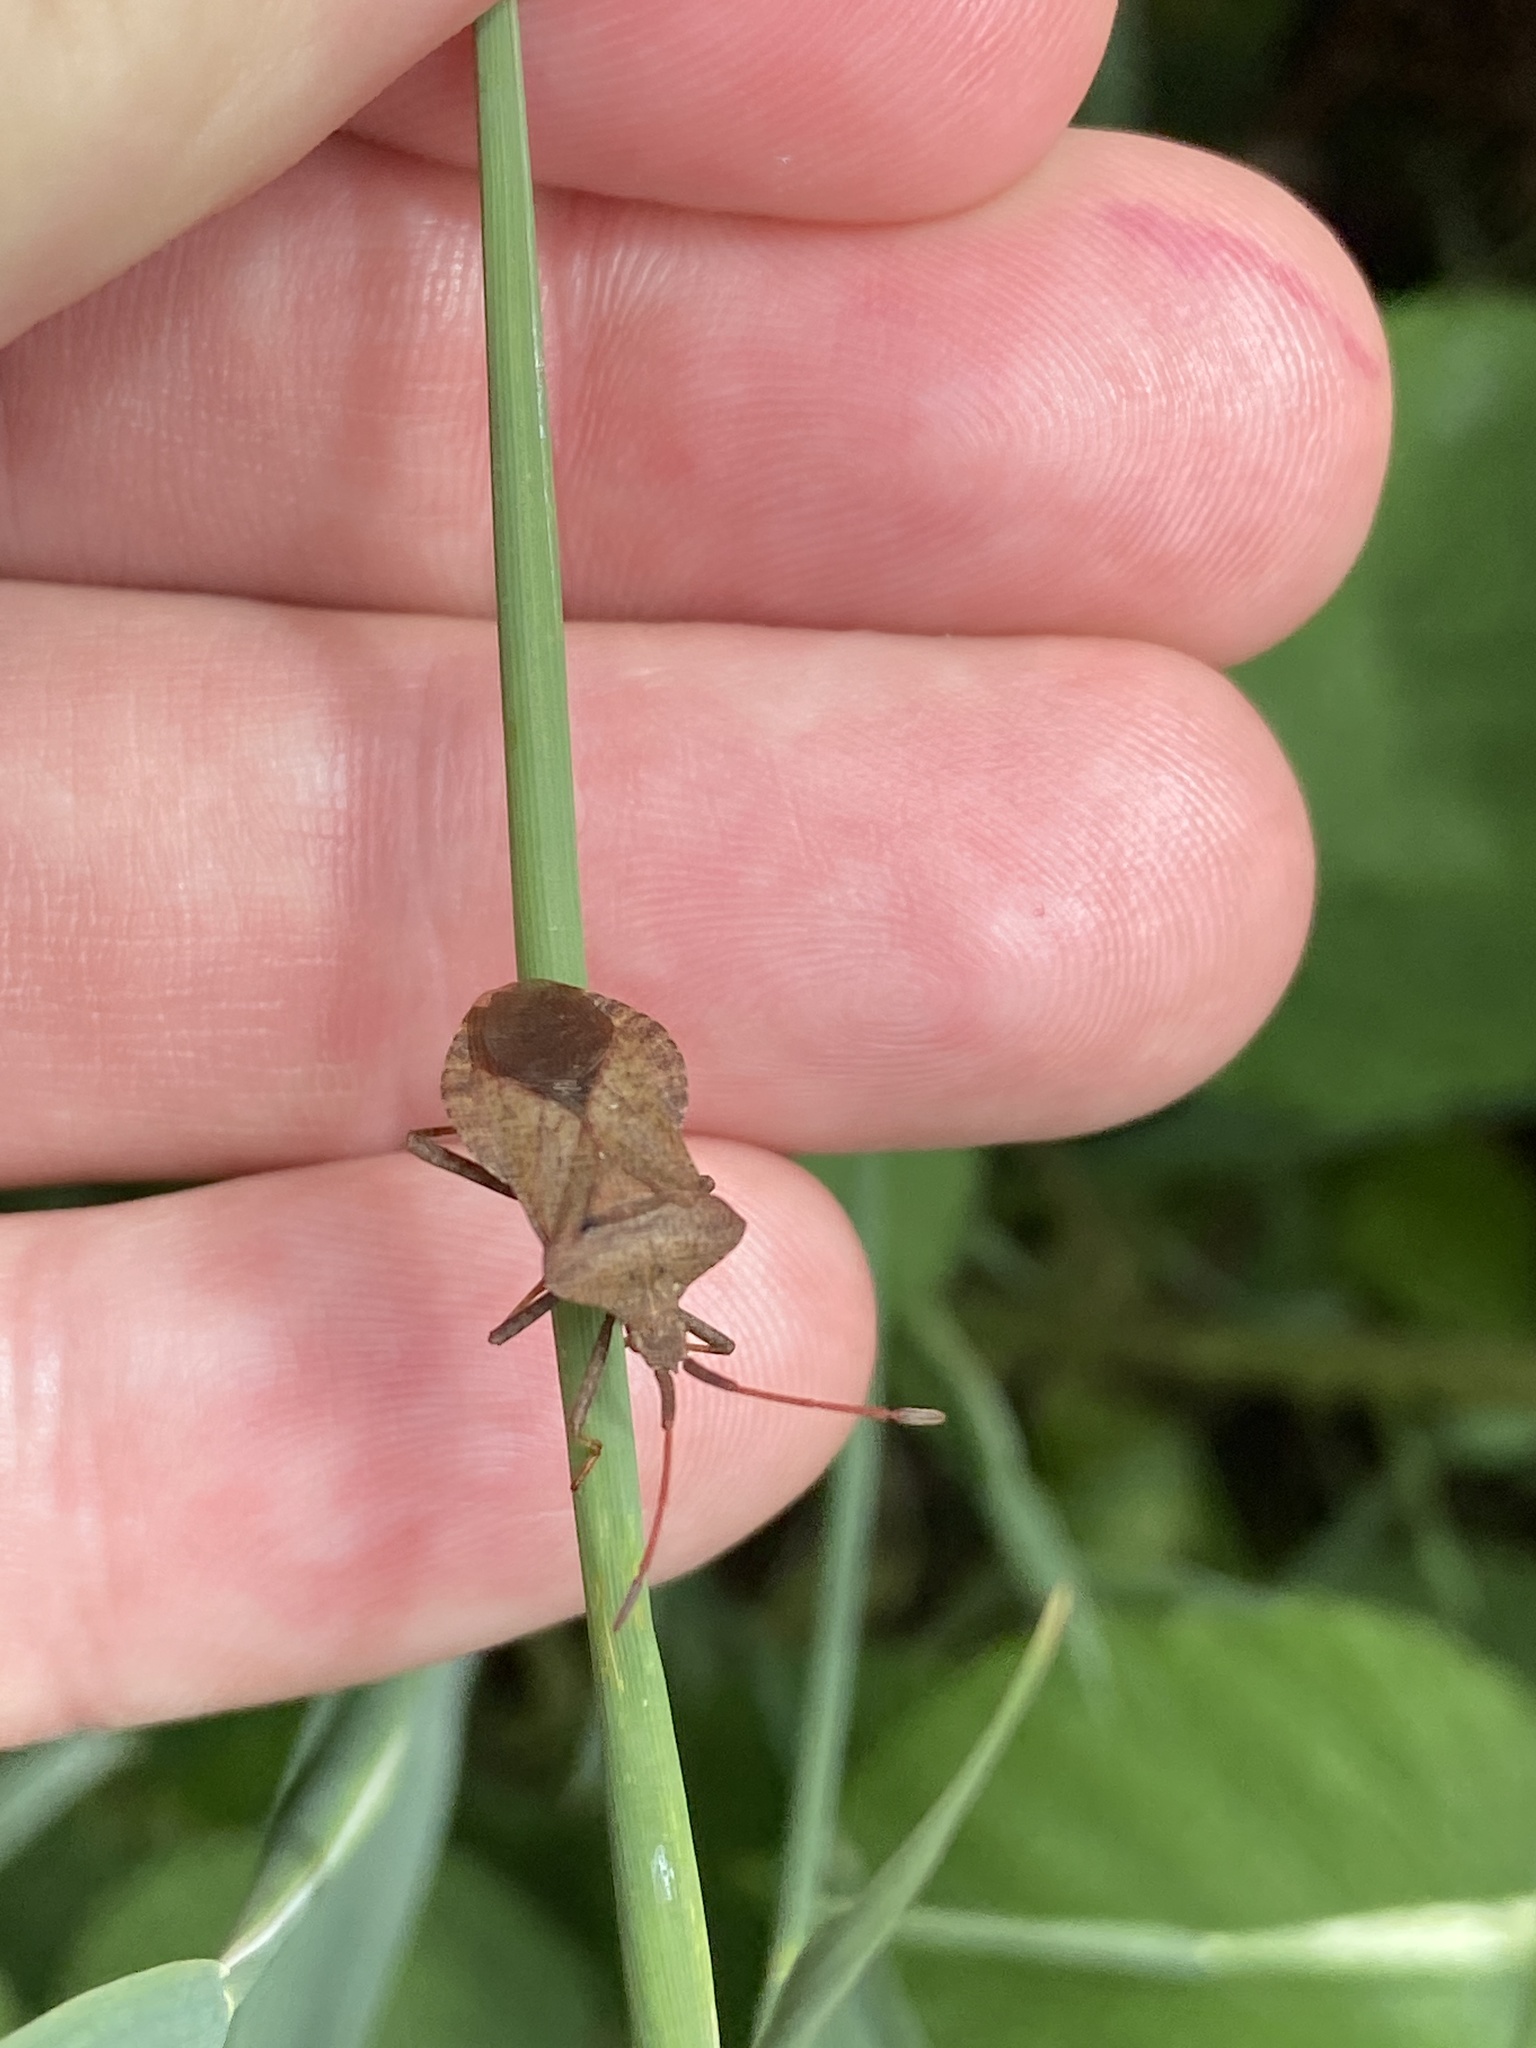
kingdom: Animalia
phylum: Arthropoda
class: Insecta
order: Hemiptera
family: Coreidae
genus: Coreus
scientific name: Coreus marginatus
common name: Dock bug
